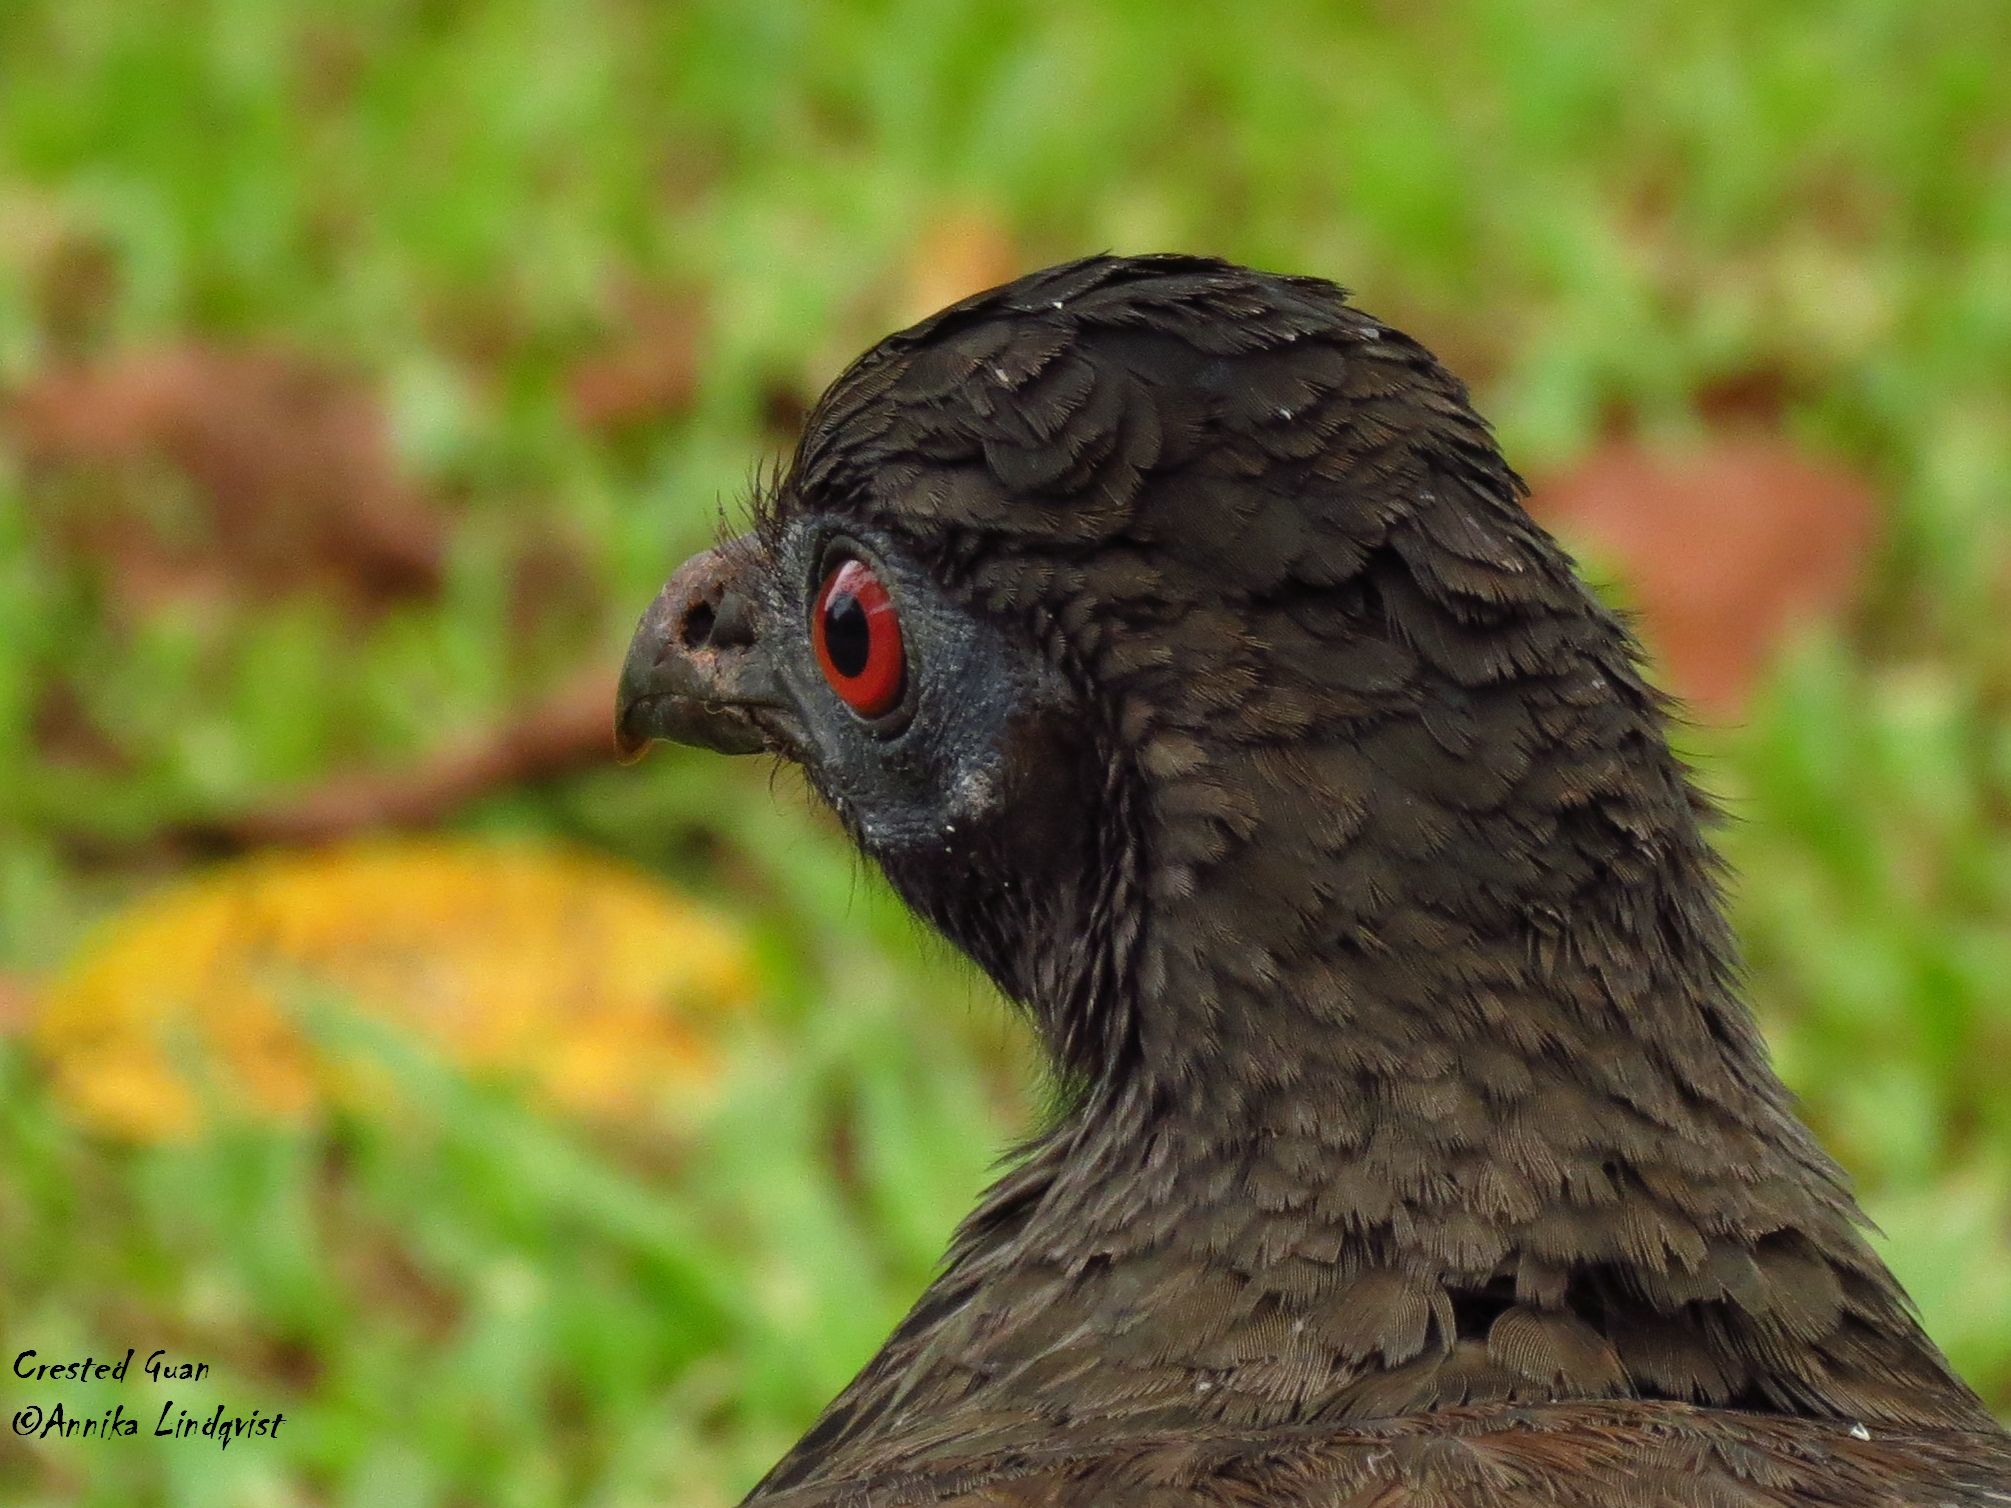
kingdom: Animalia
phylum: Chordata
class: Aves
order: Galliformes
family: Cracidae
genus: Penelope
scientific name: Penelope purpurascens
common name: Crested guan
